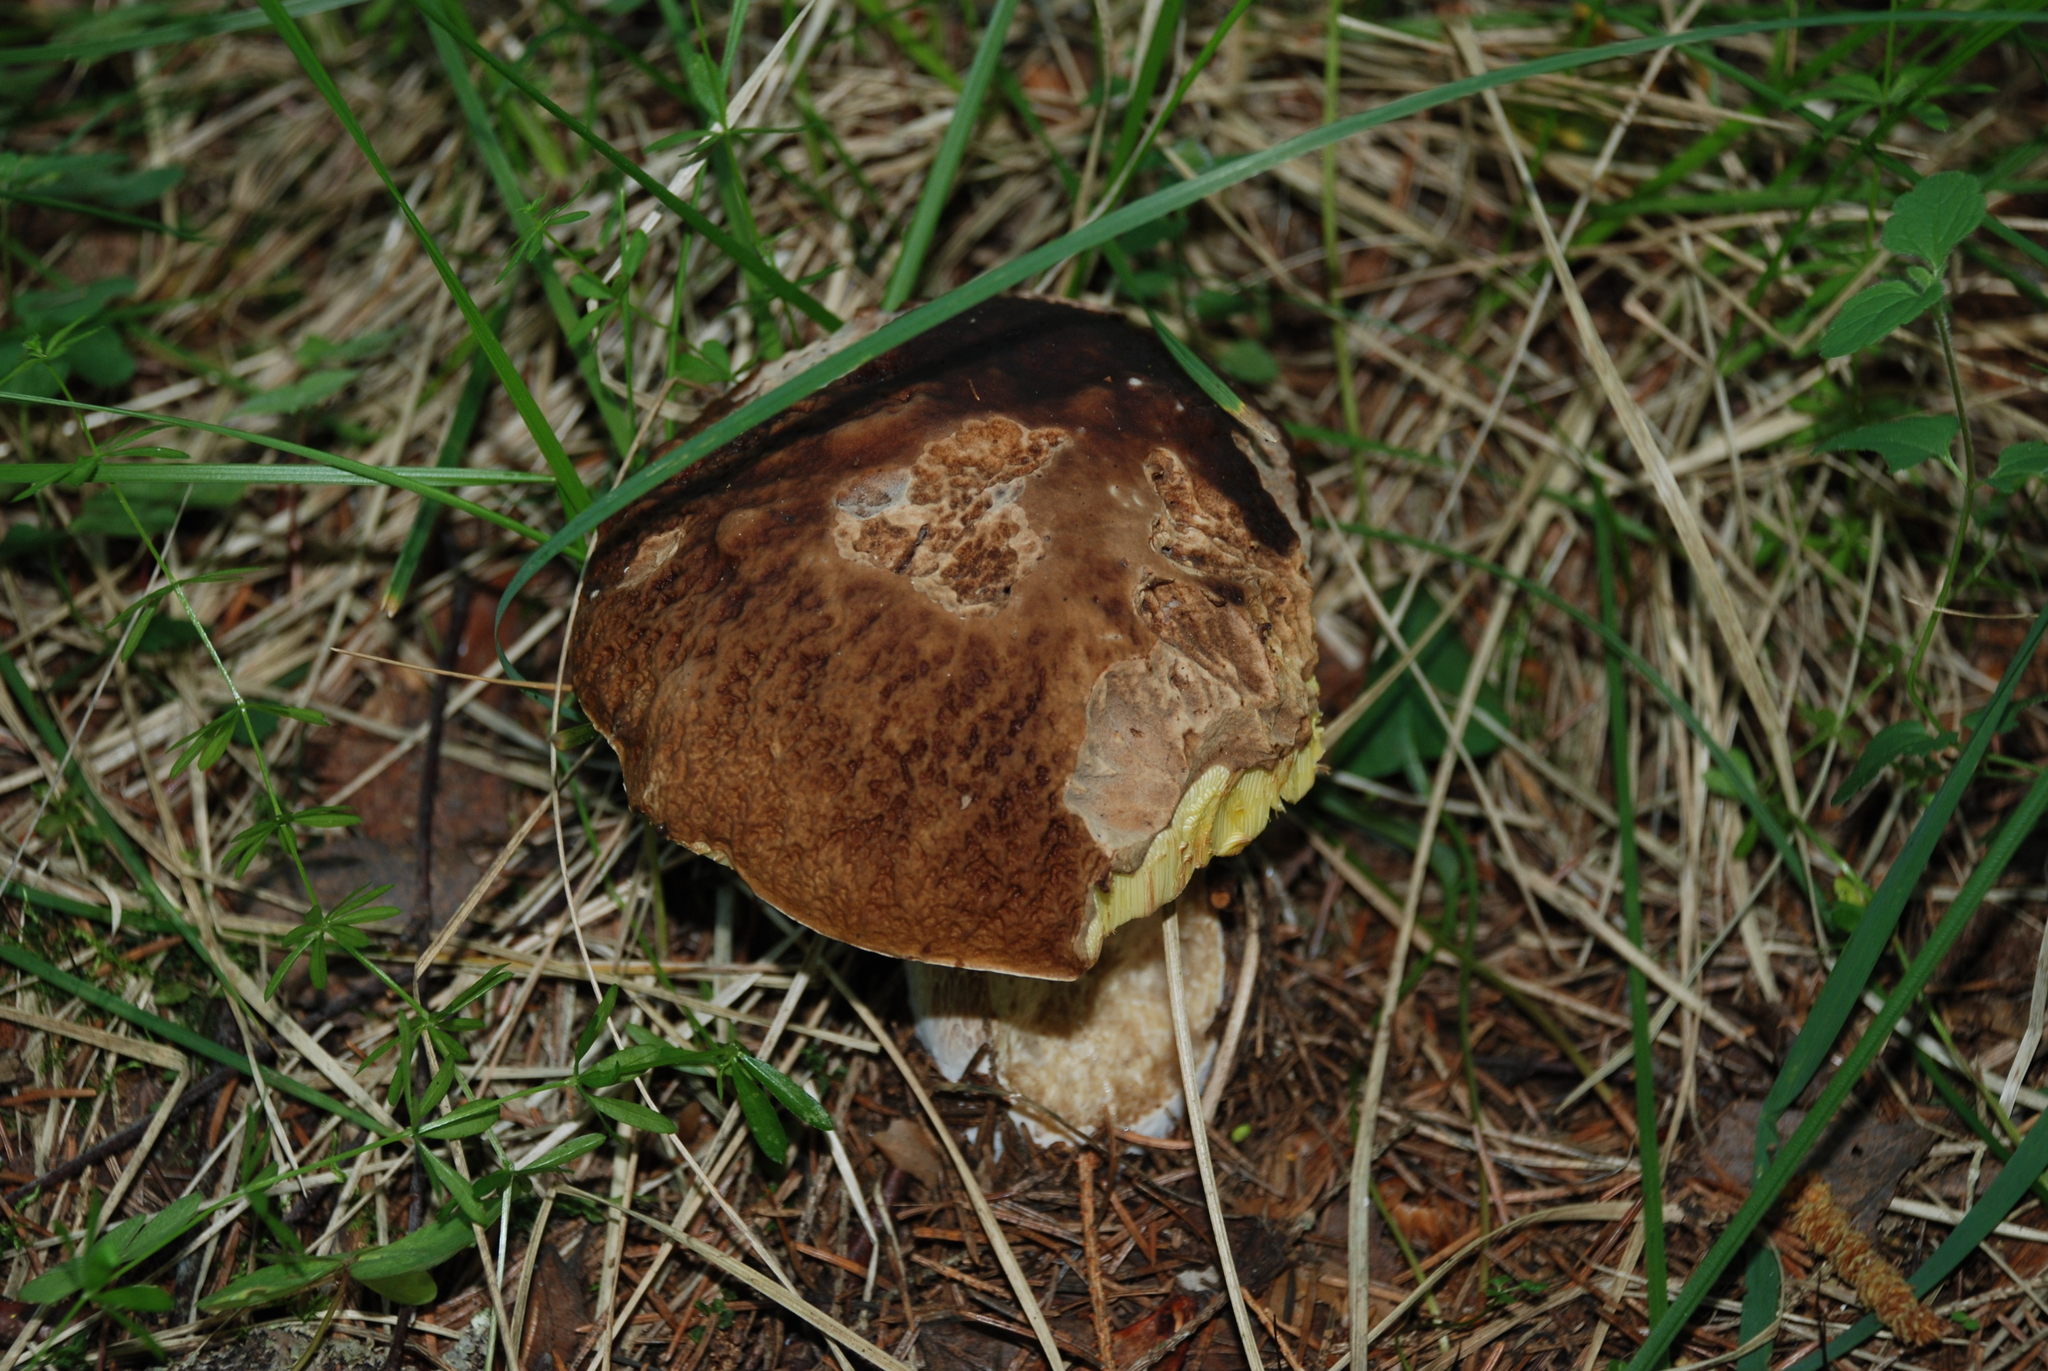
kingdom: Fungi
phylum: Basidiomycota
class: Agaricomycetes
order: Boletales
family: Boletaceae
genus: Boletus
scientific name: Boletus edulis
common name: Cep
